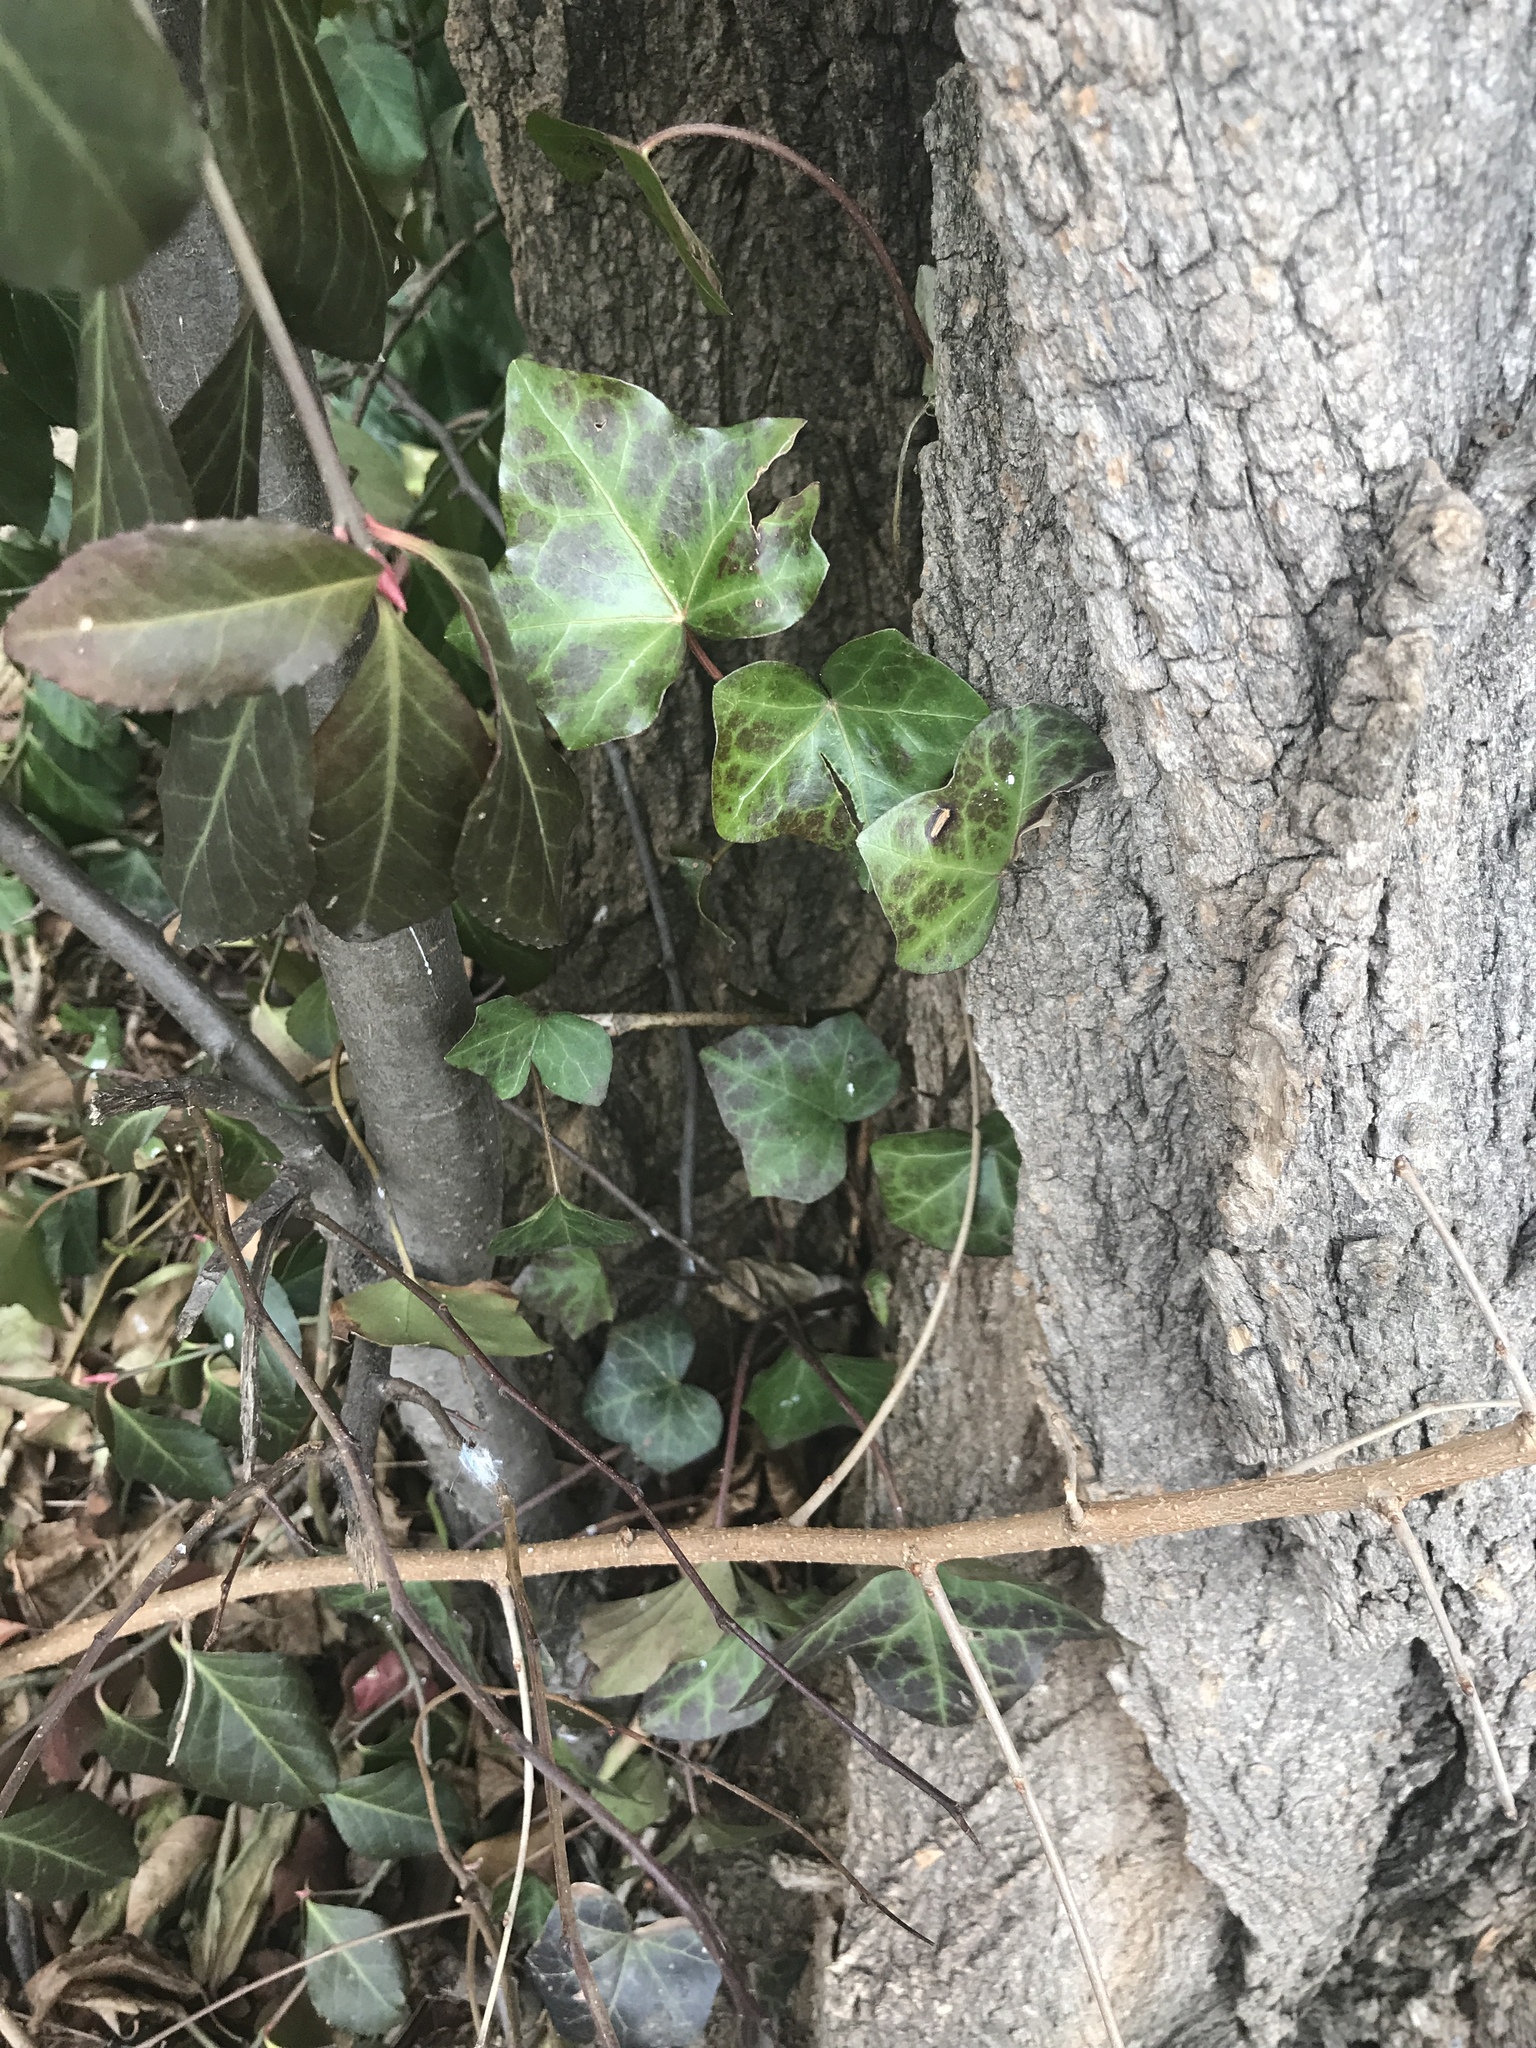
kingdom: Plantae
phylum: Tracheophyta
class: Magnoliopsida
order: Apiales
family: Araliaceae
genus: Hedera
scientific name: Hedera
